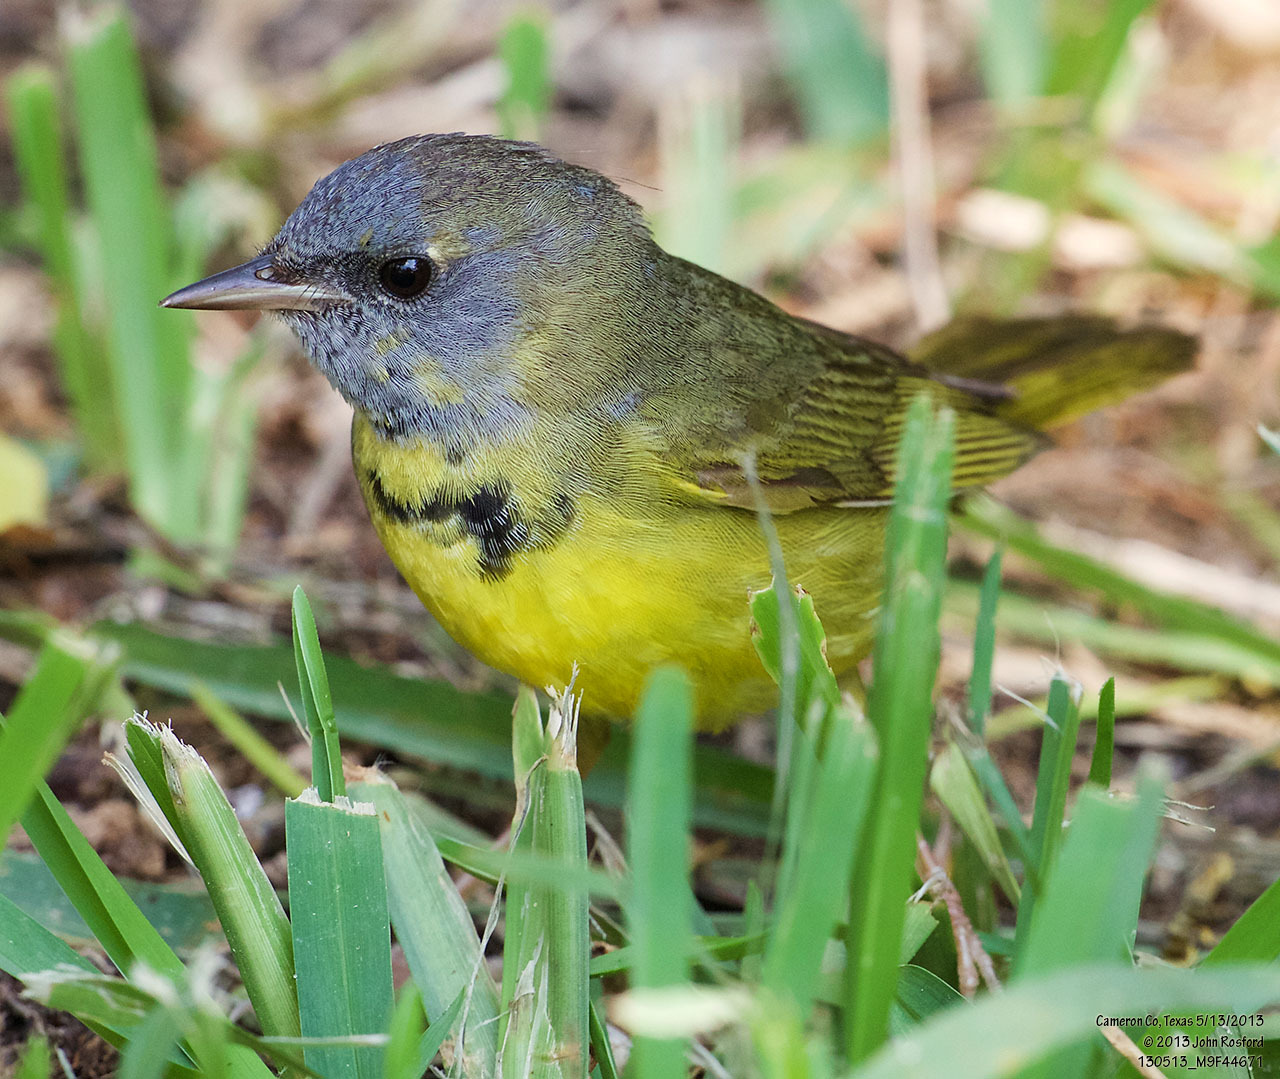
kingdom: Animalia
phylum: Chordata
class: Aves
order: Passeriformes
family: Parulidae
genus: Geothlypis
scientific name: Geothlypis philadelphia
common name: Mourning warbler
